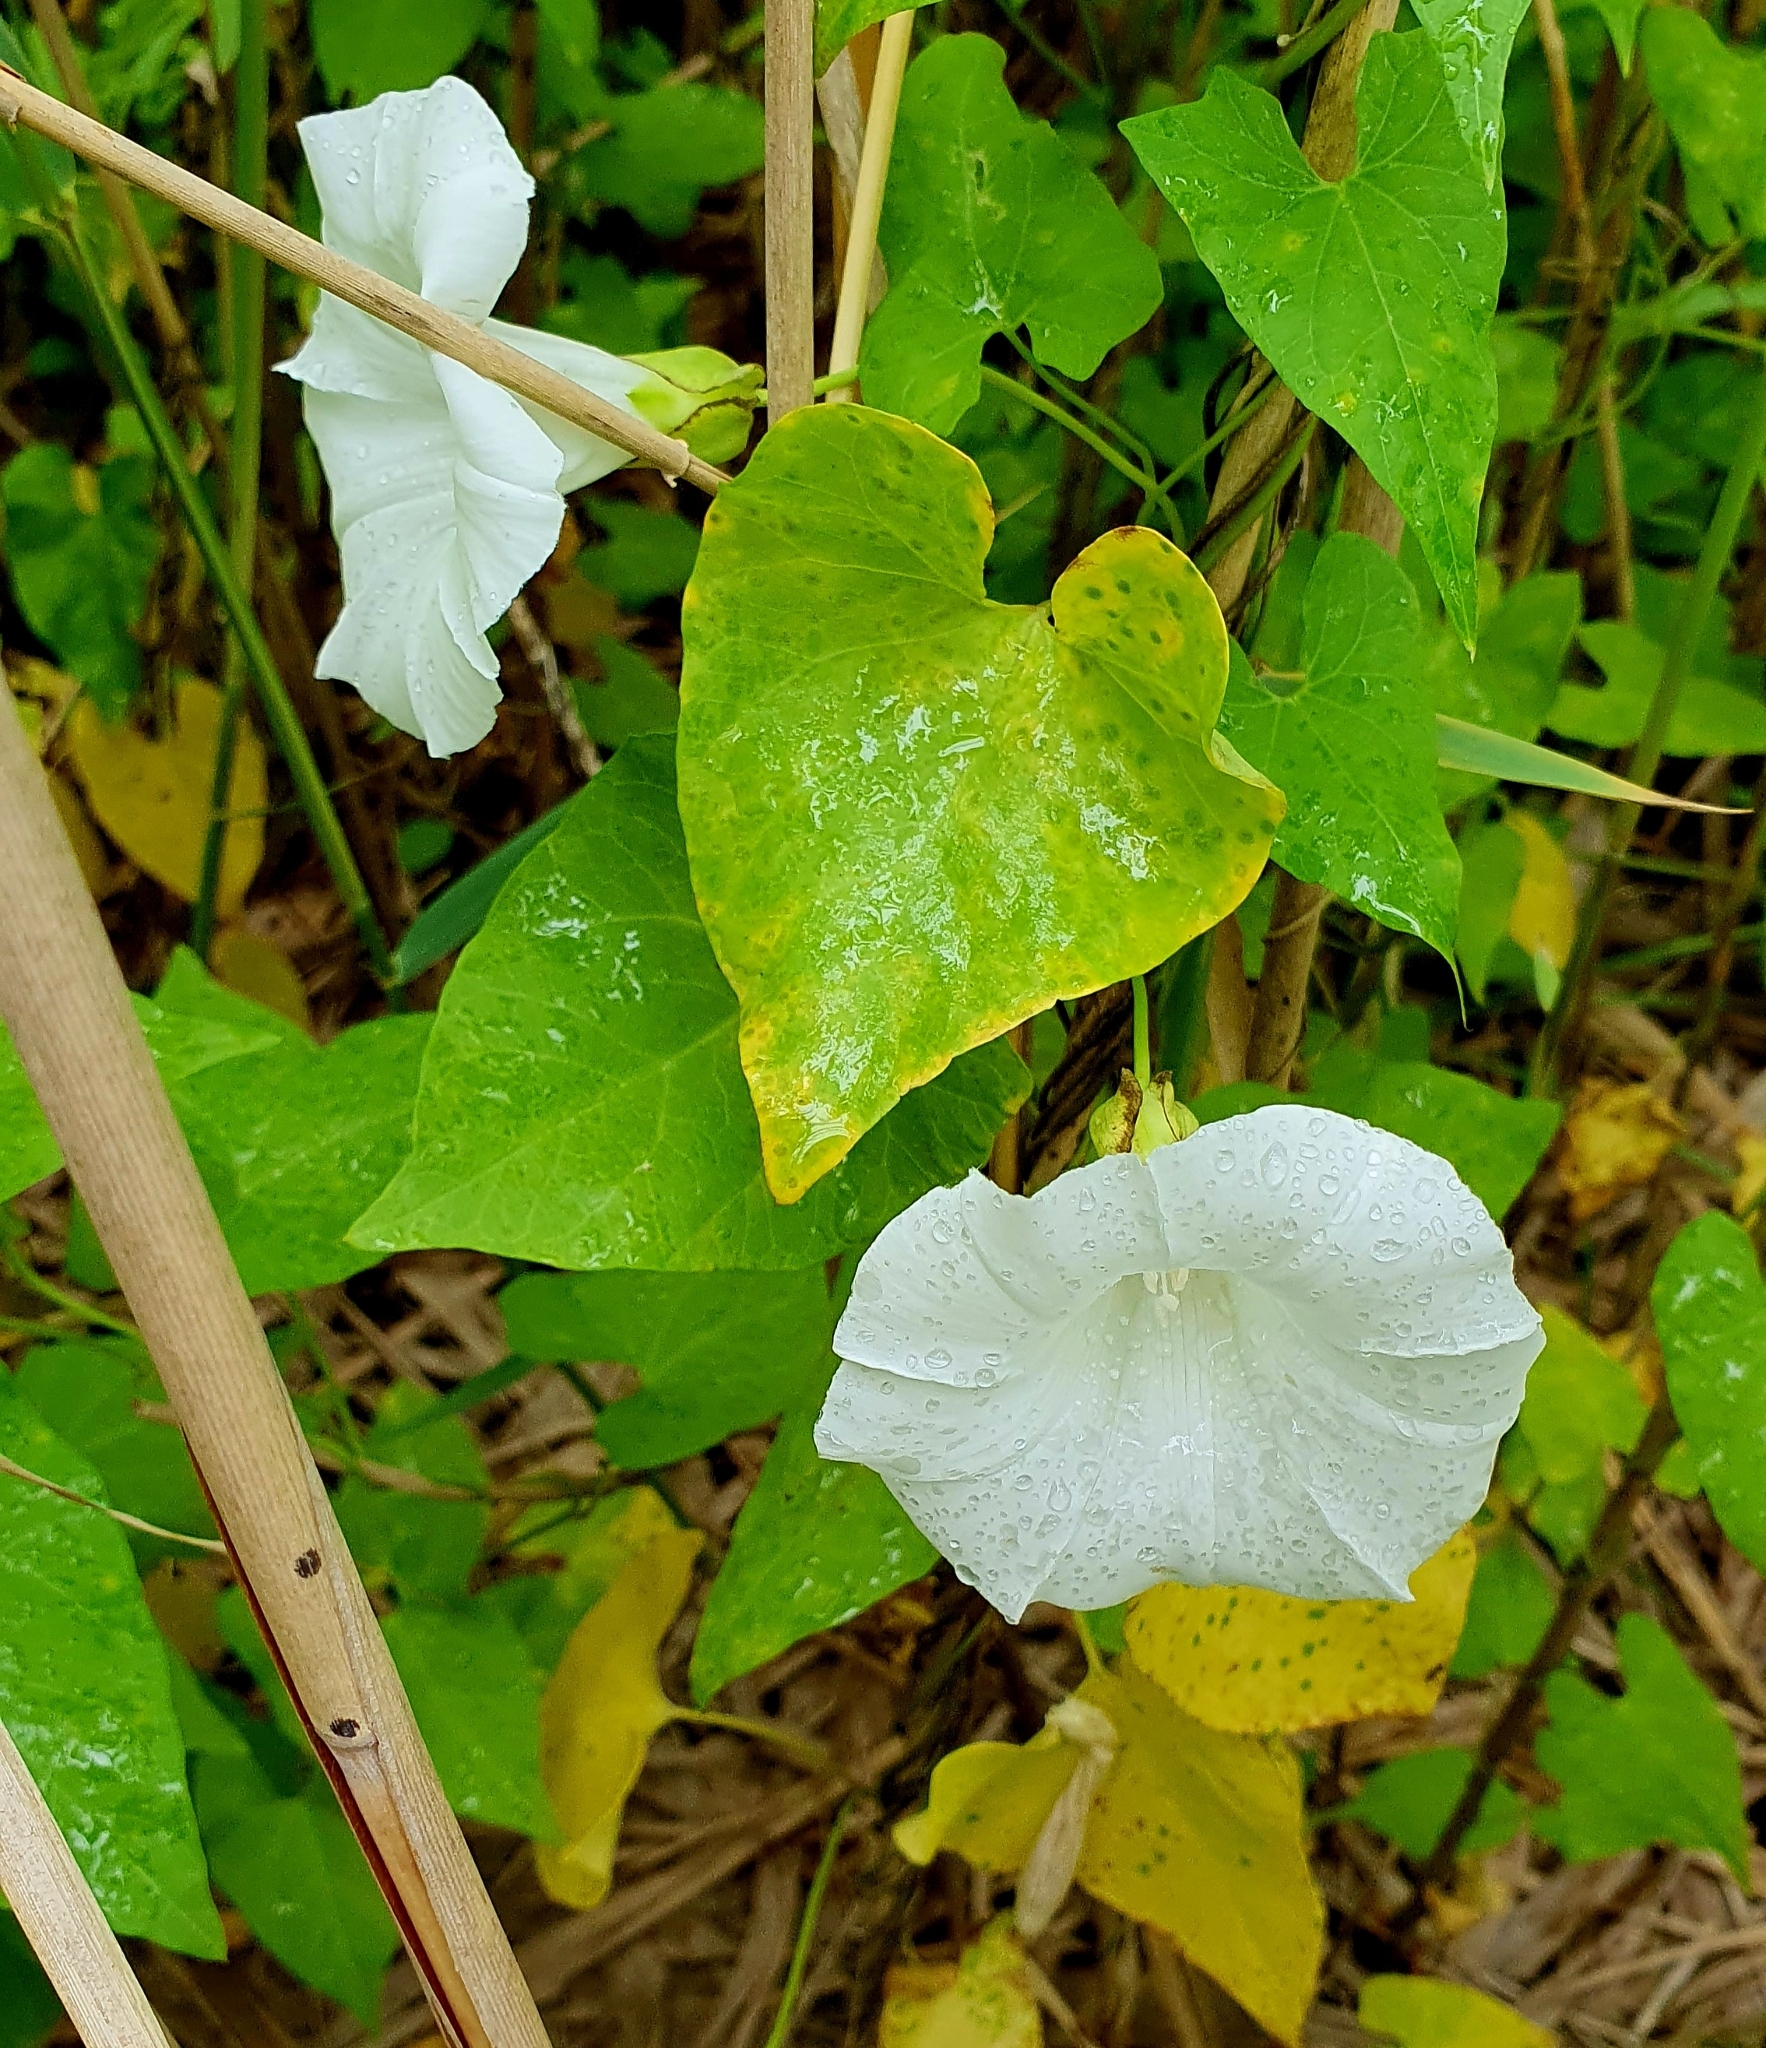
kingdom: Plantae
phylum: Tracheophyta
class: Magnoliopsida
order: Solanales
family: Convolvulaceae
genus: Calystegia
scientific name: Calystegia sepium
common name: Hedge bindweed
